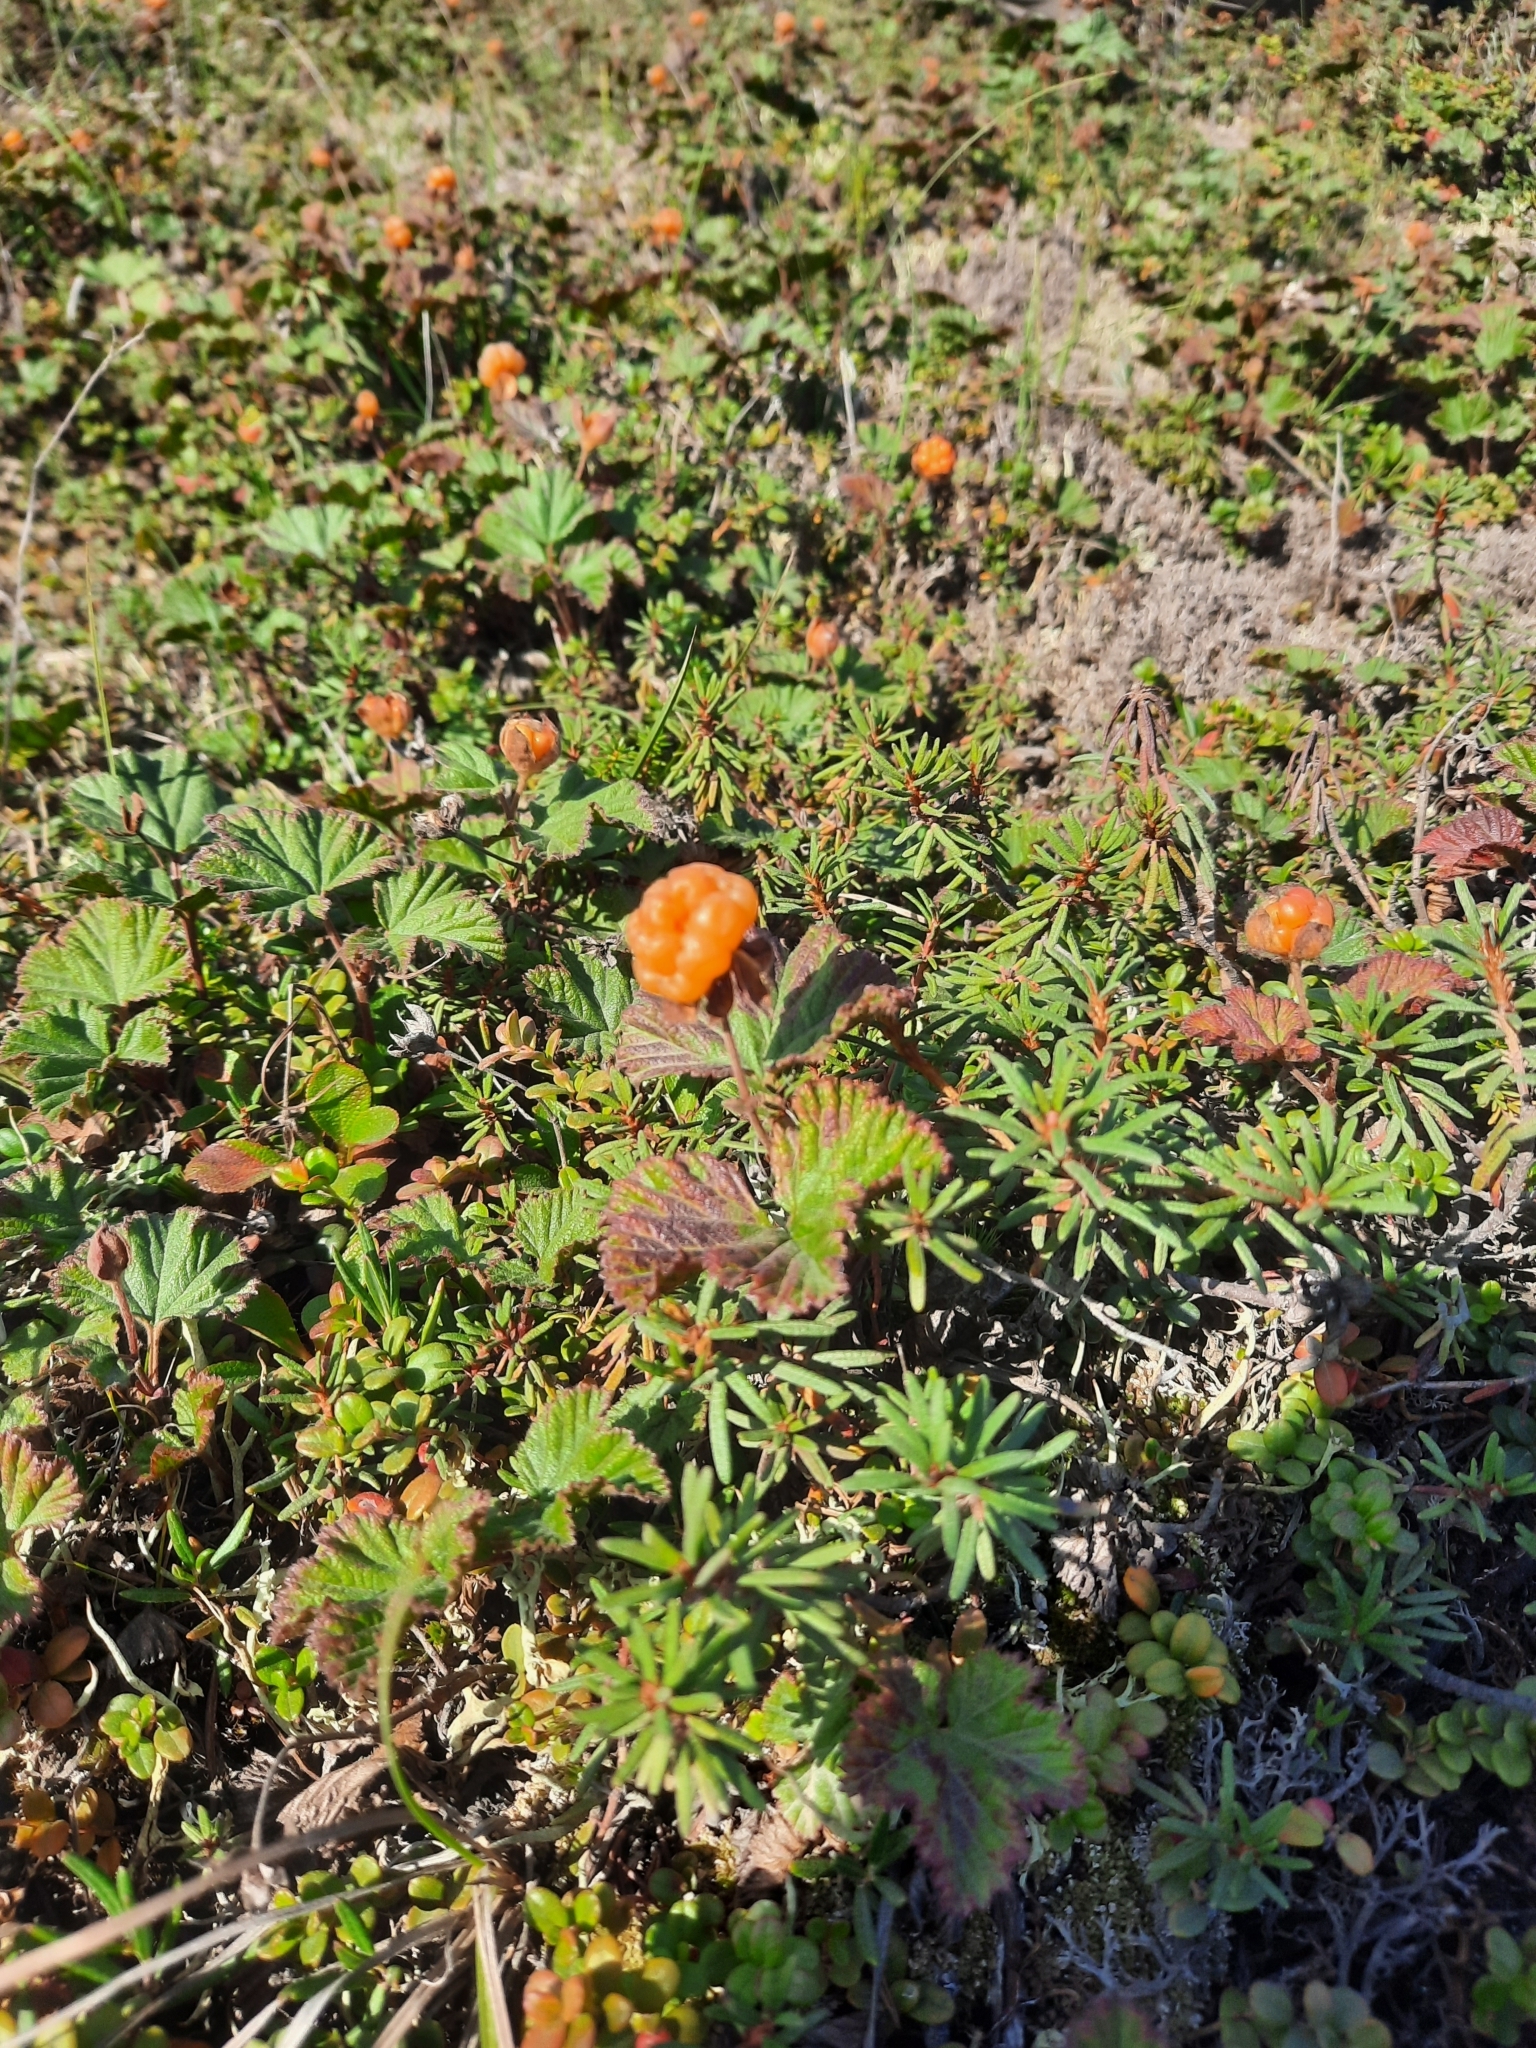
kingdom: Plantae
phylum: Tracheophyta
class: Magnoliopsida
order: Rosales
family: Rosaceae
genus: Rubus
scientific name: Rubus chamaemorus
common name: Cloudberry
